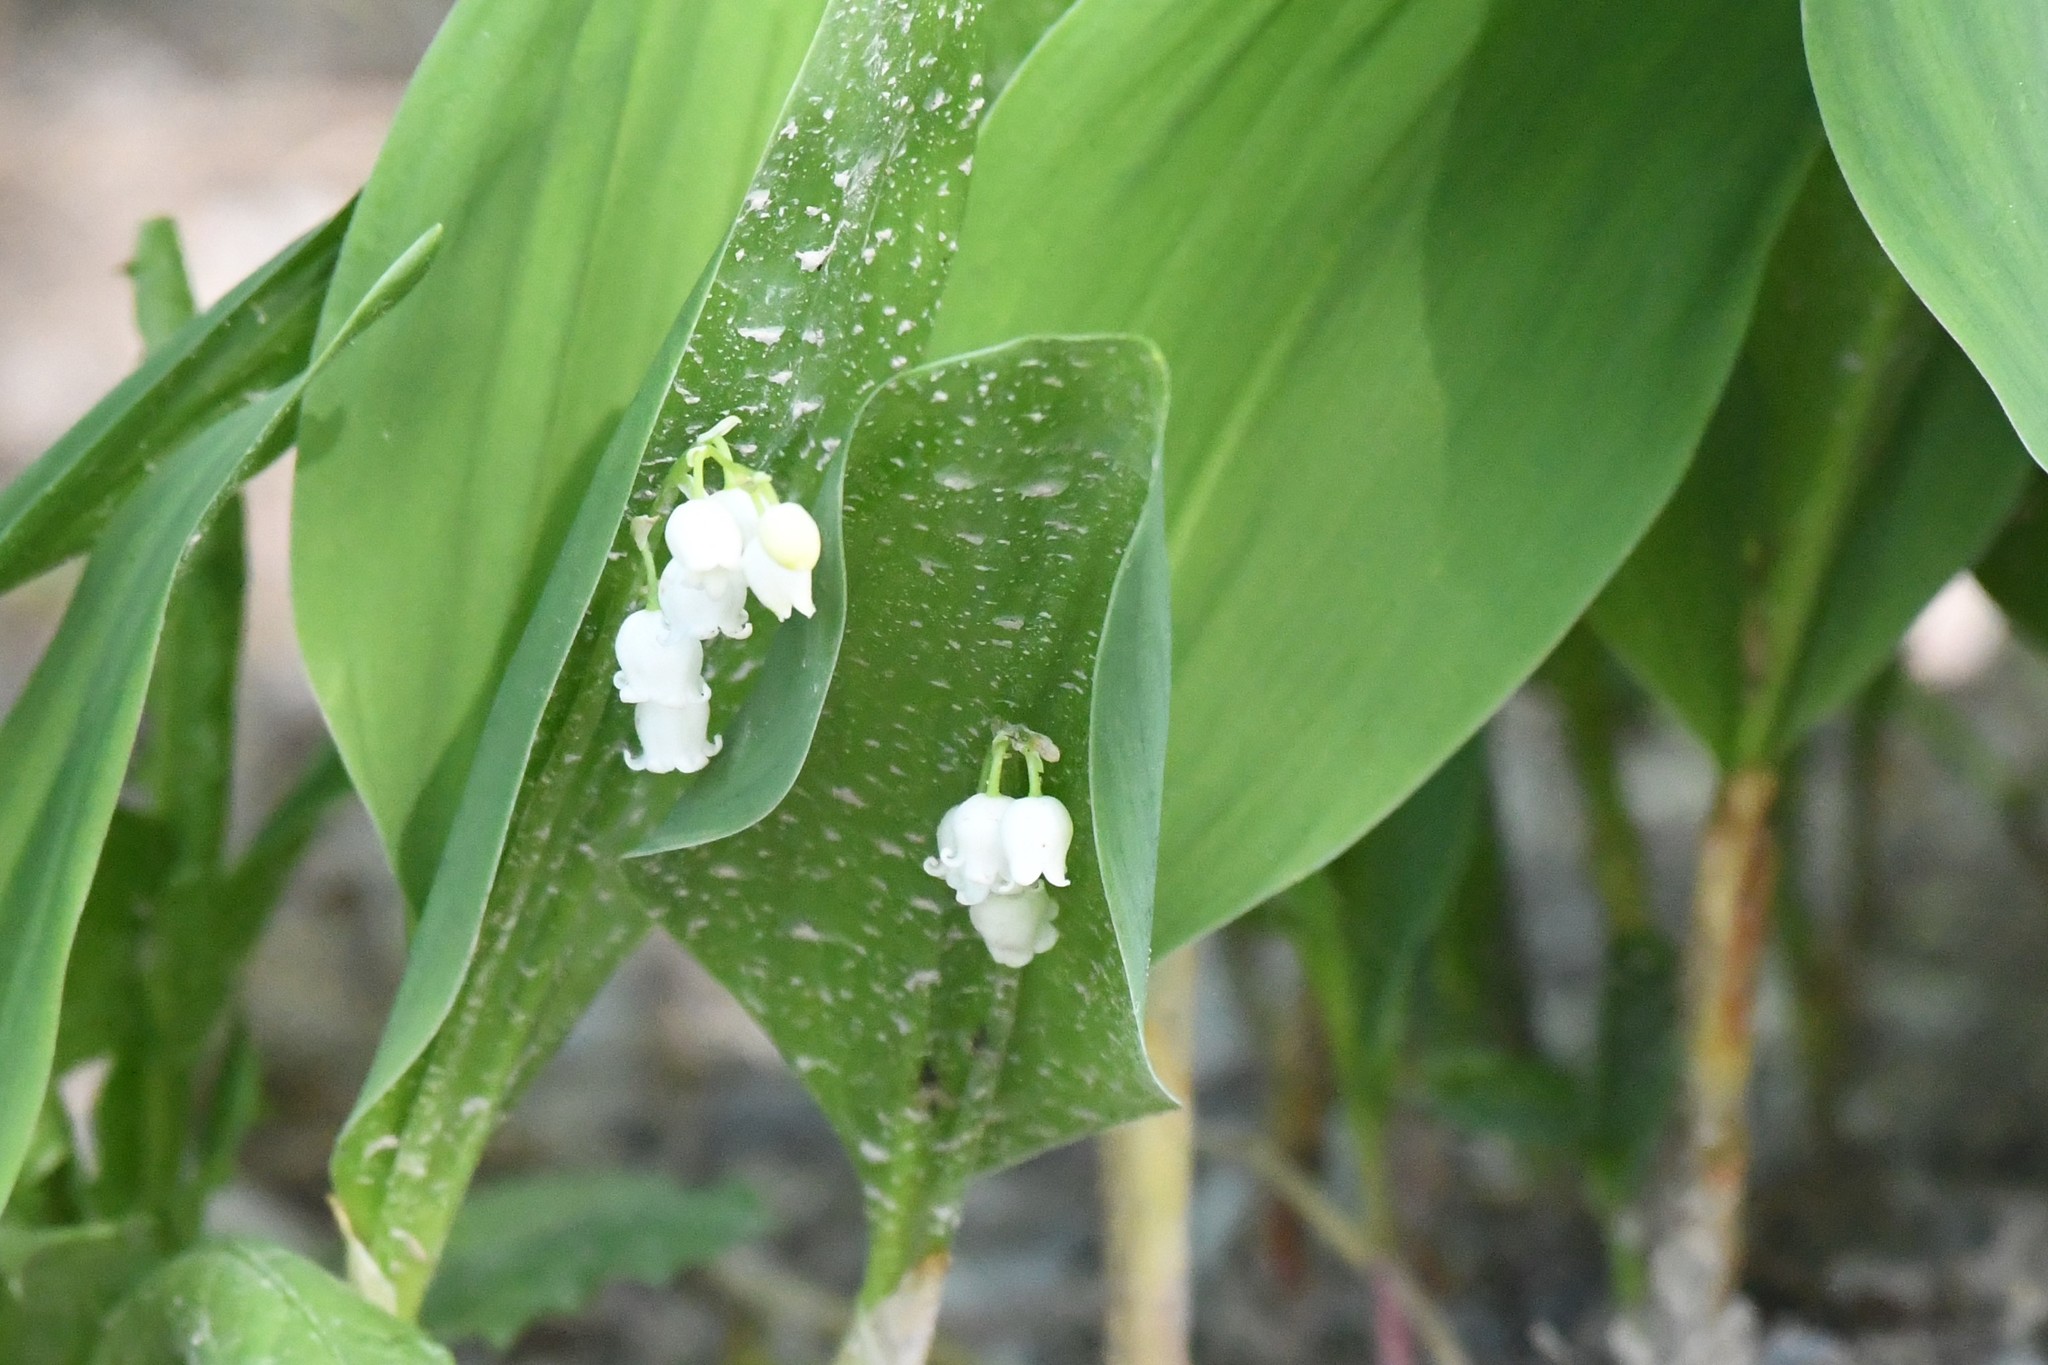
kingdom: Plantae
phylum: Tracheophyta
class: Liliopsida
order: Asparagales
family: Asparagaceae
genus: Convallaria
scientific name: Convallaria majalis
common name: Lily-of-the-valley
